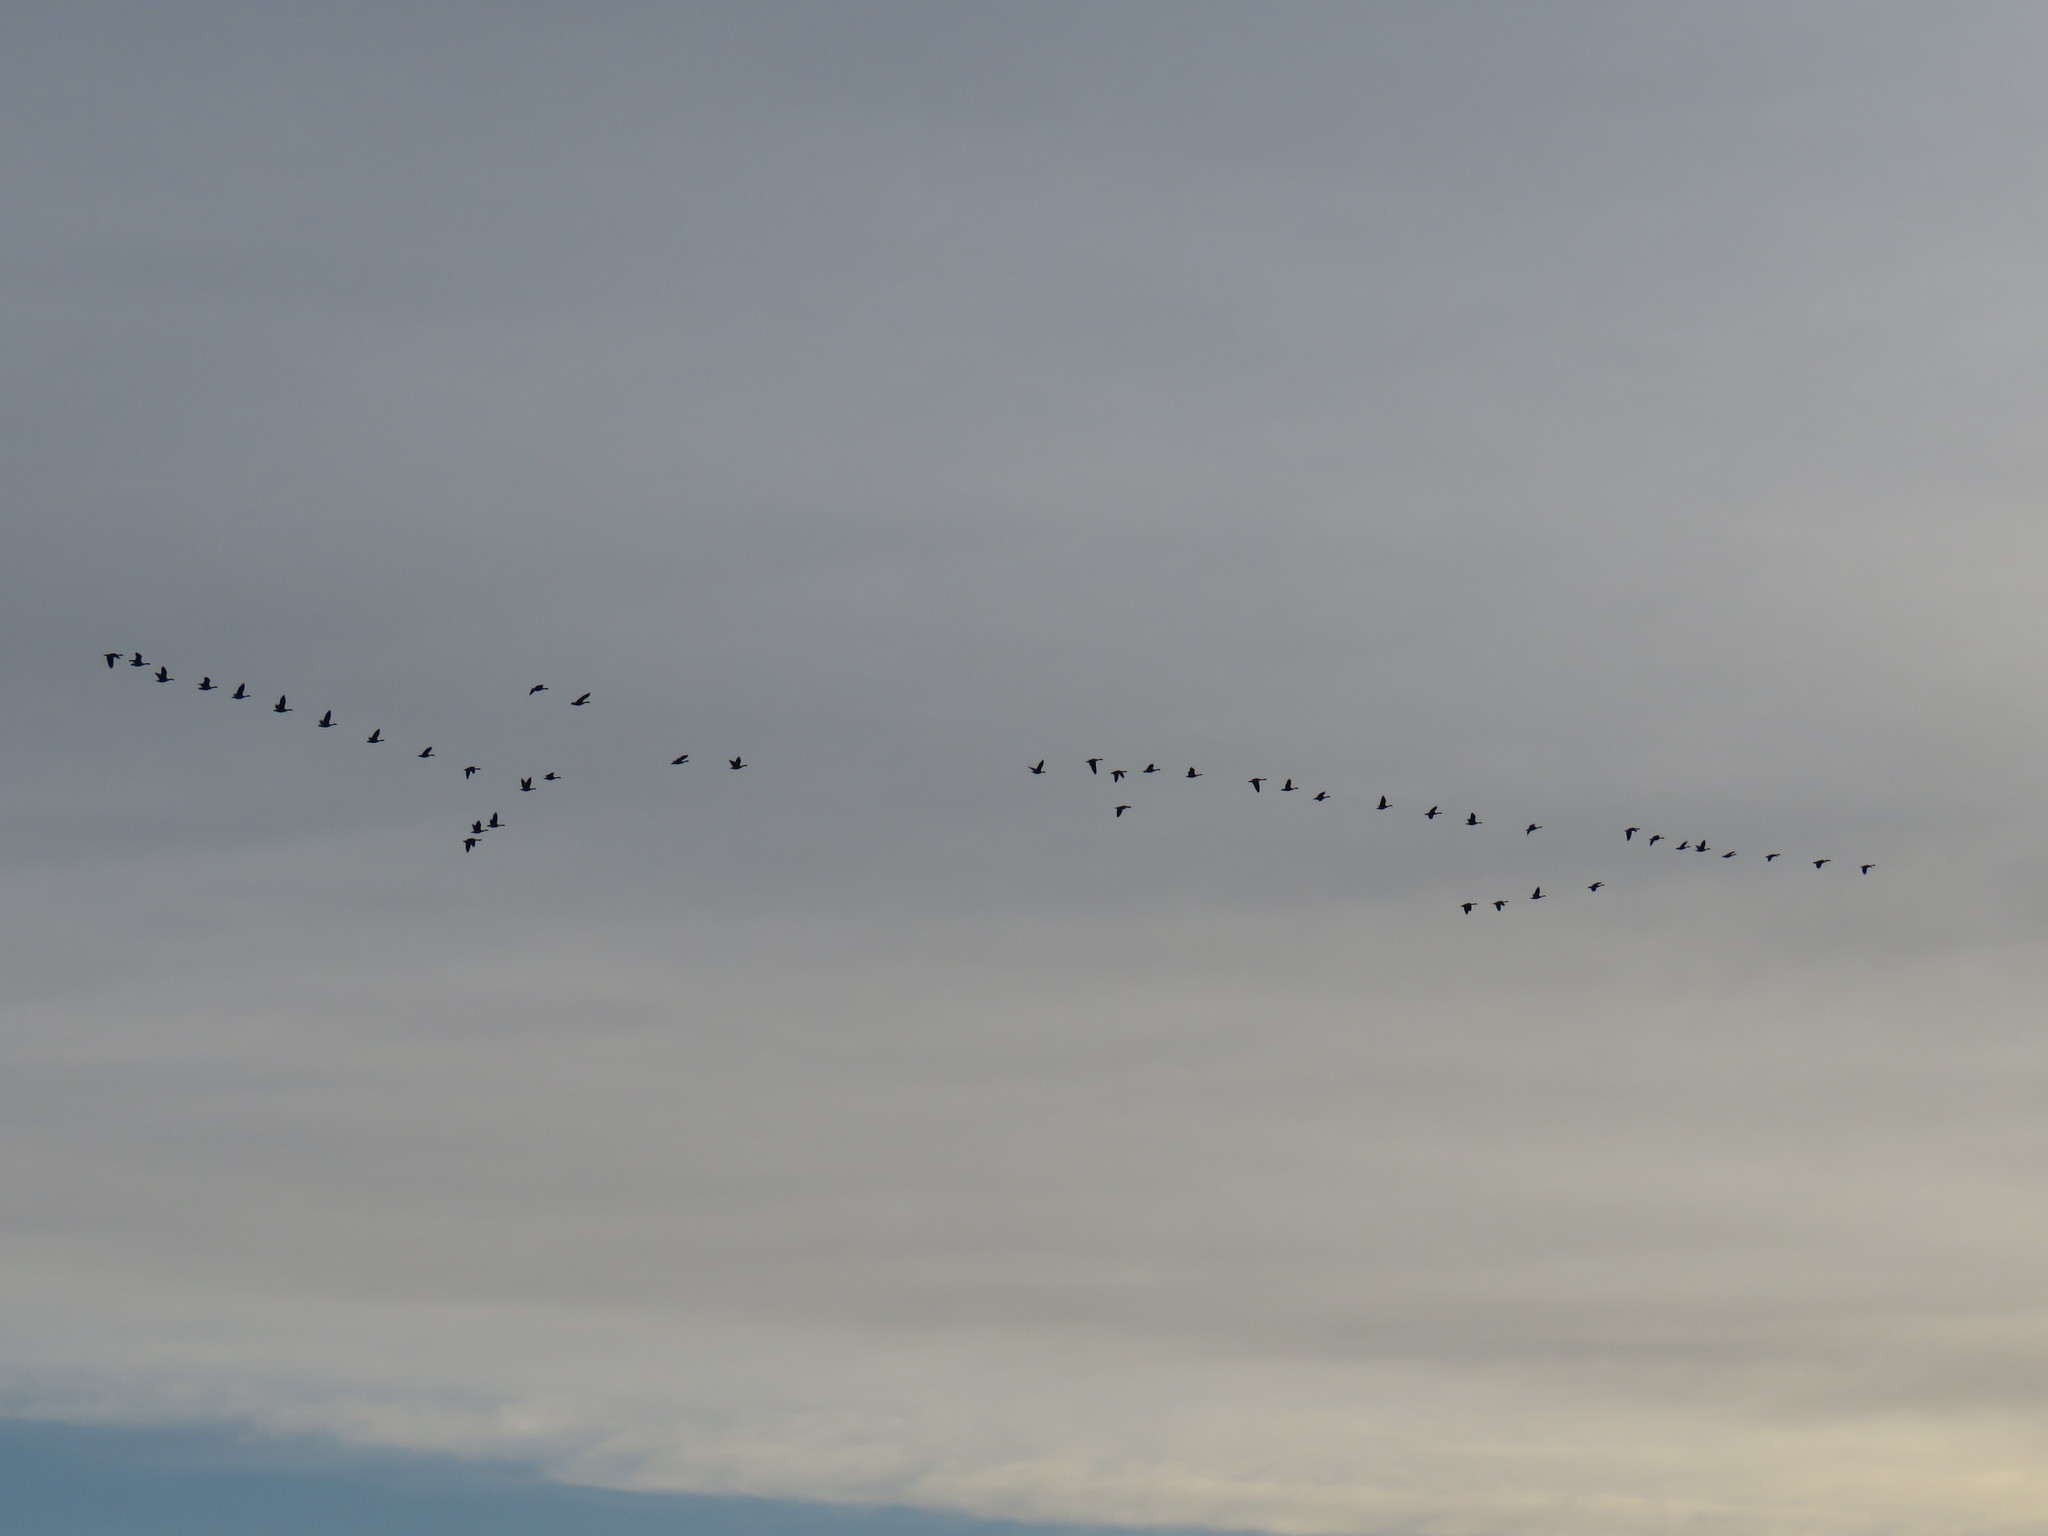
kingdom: Animalia
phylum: Chordata
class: Aves
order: Anseriformes
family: Anatidae
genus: Branta
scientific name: Branta canadensis
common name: Canada goose
